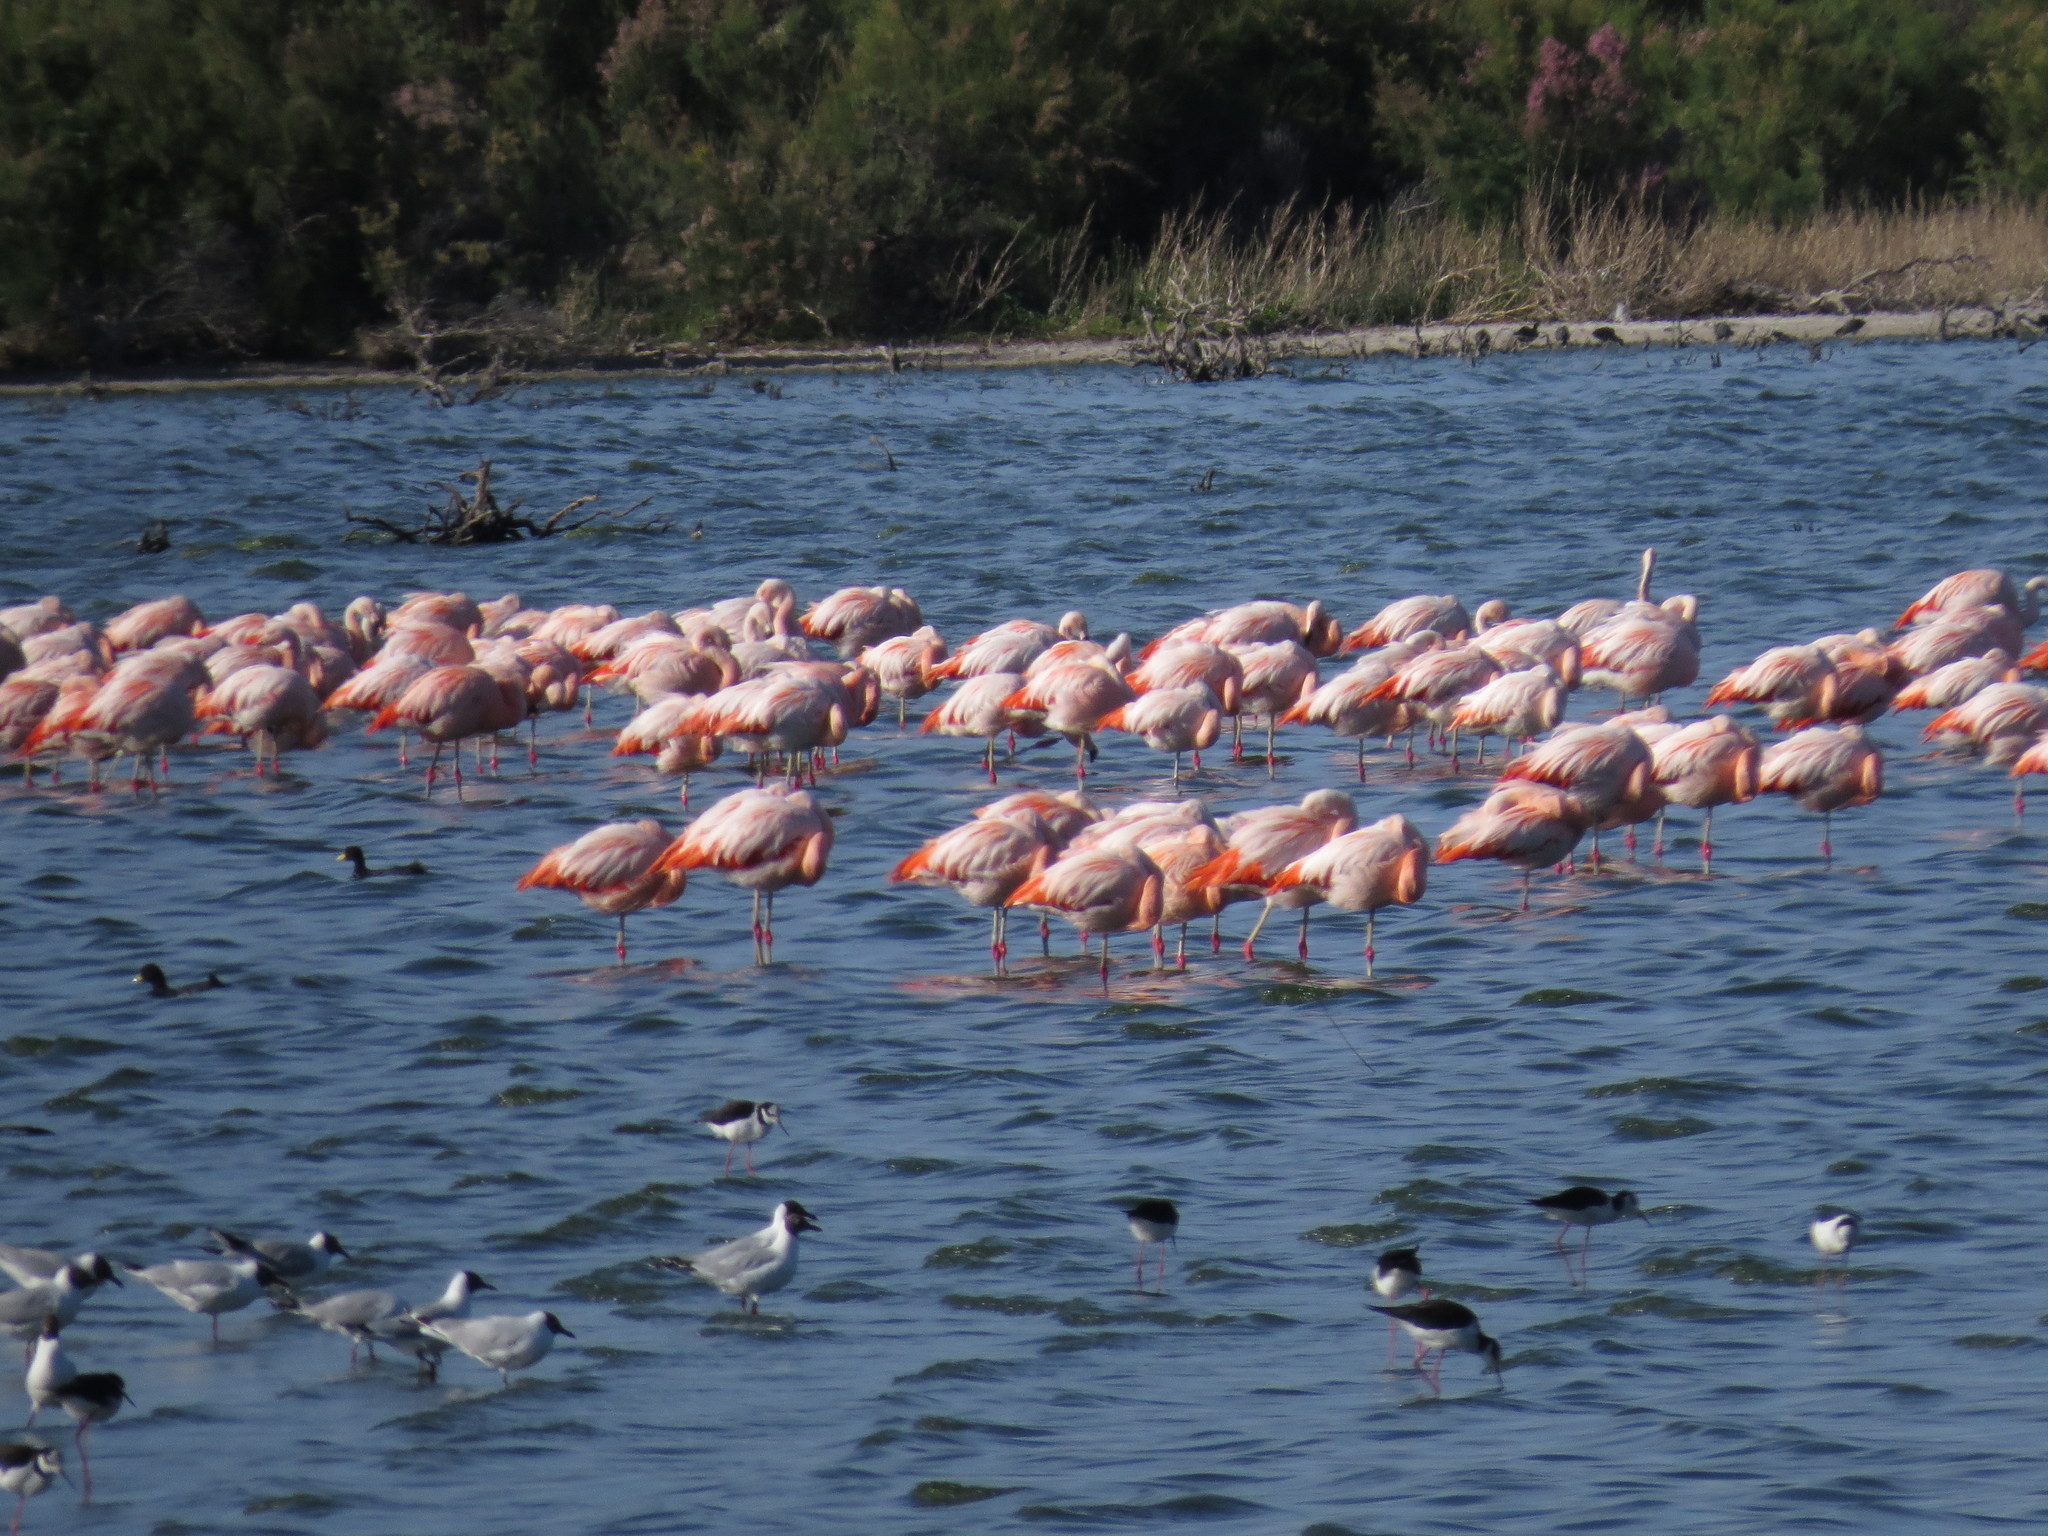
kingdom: Animalia
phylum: Chordata
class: Aves
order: Charadriiformes
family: Laridae
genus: Chroicocephalus
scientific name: Chroicocephalus maculipennis
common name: Brown-hooded gull
